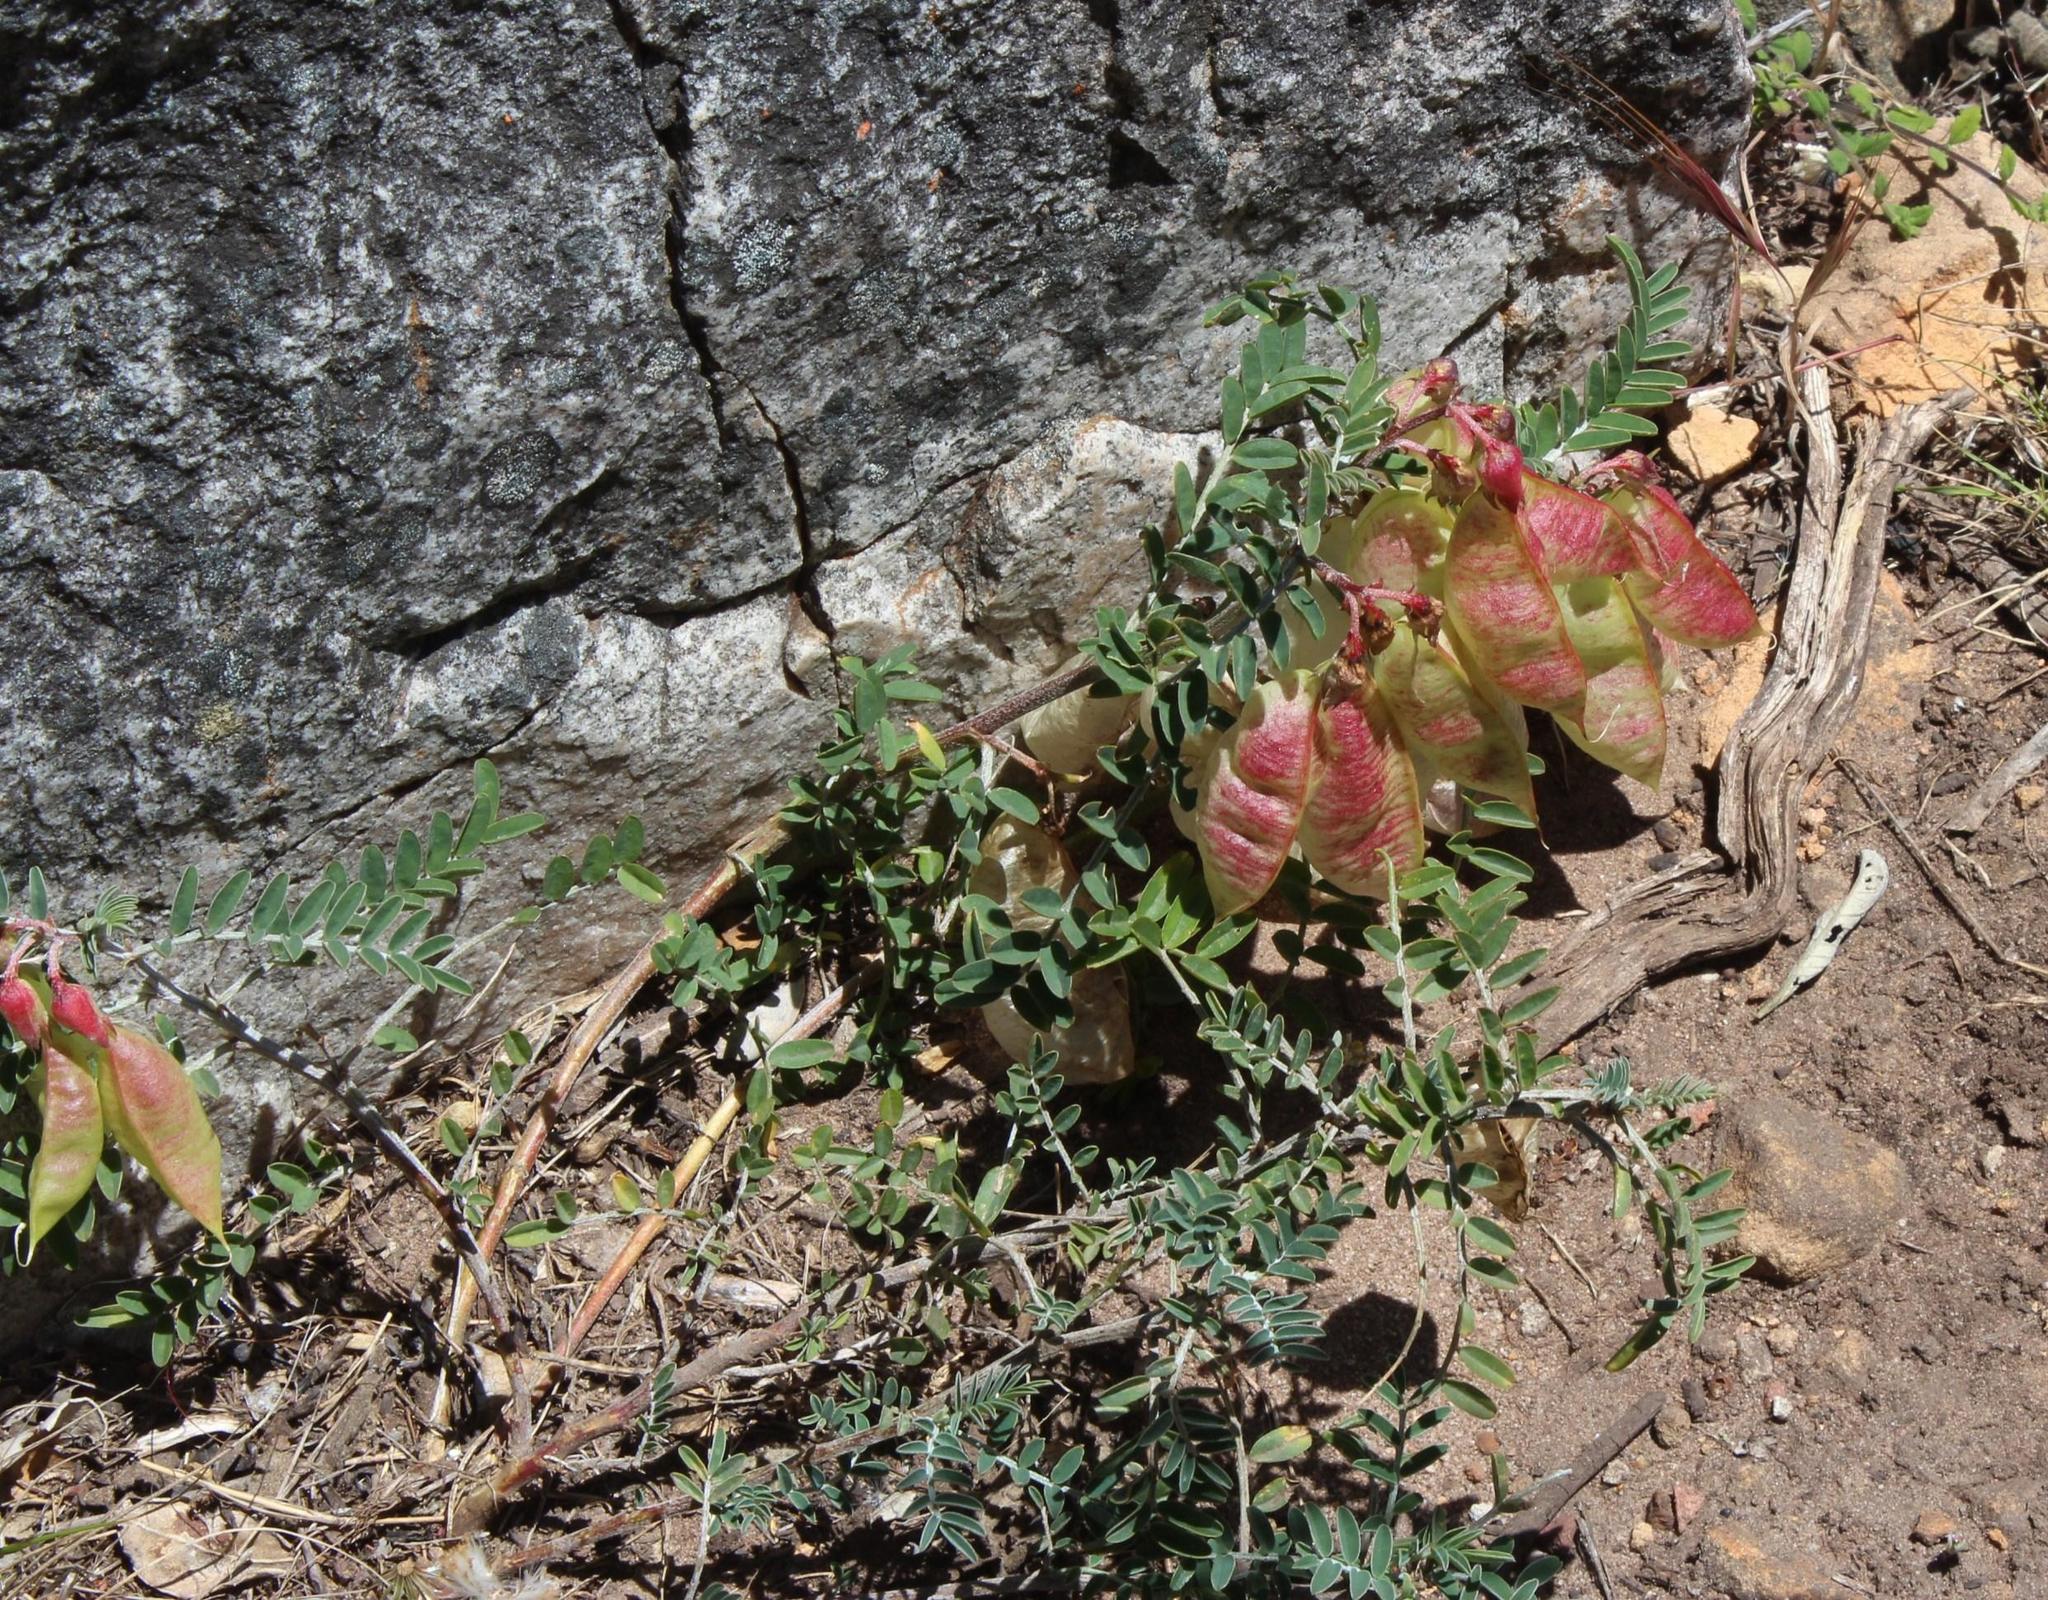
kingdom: Plantae
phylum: Tracheophyta
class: Magnoliopsida
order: Fabales
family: Fabaceae
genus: Lessertia
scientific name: Lessertia frutescens
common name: Balloon-pea
